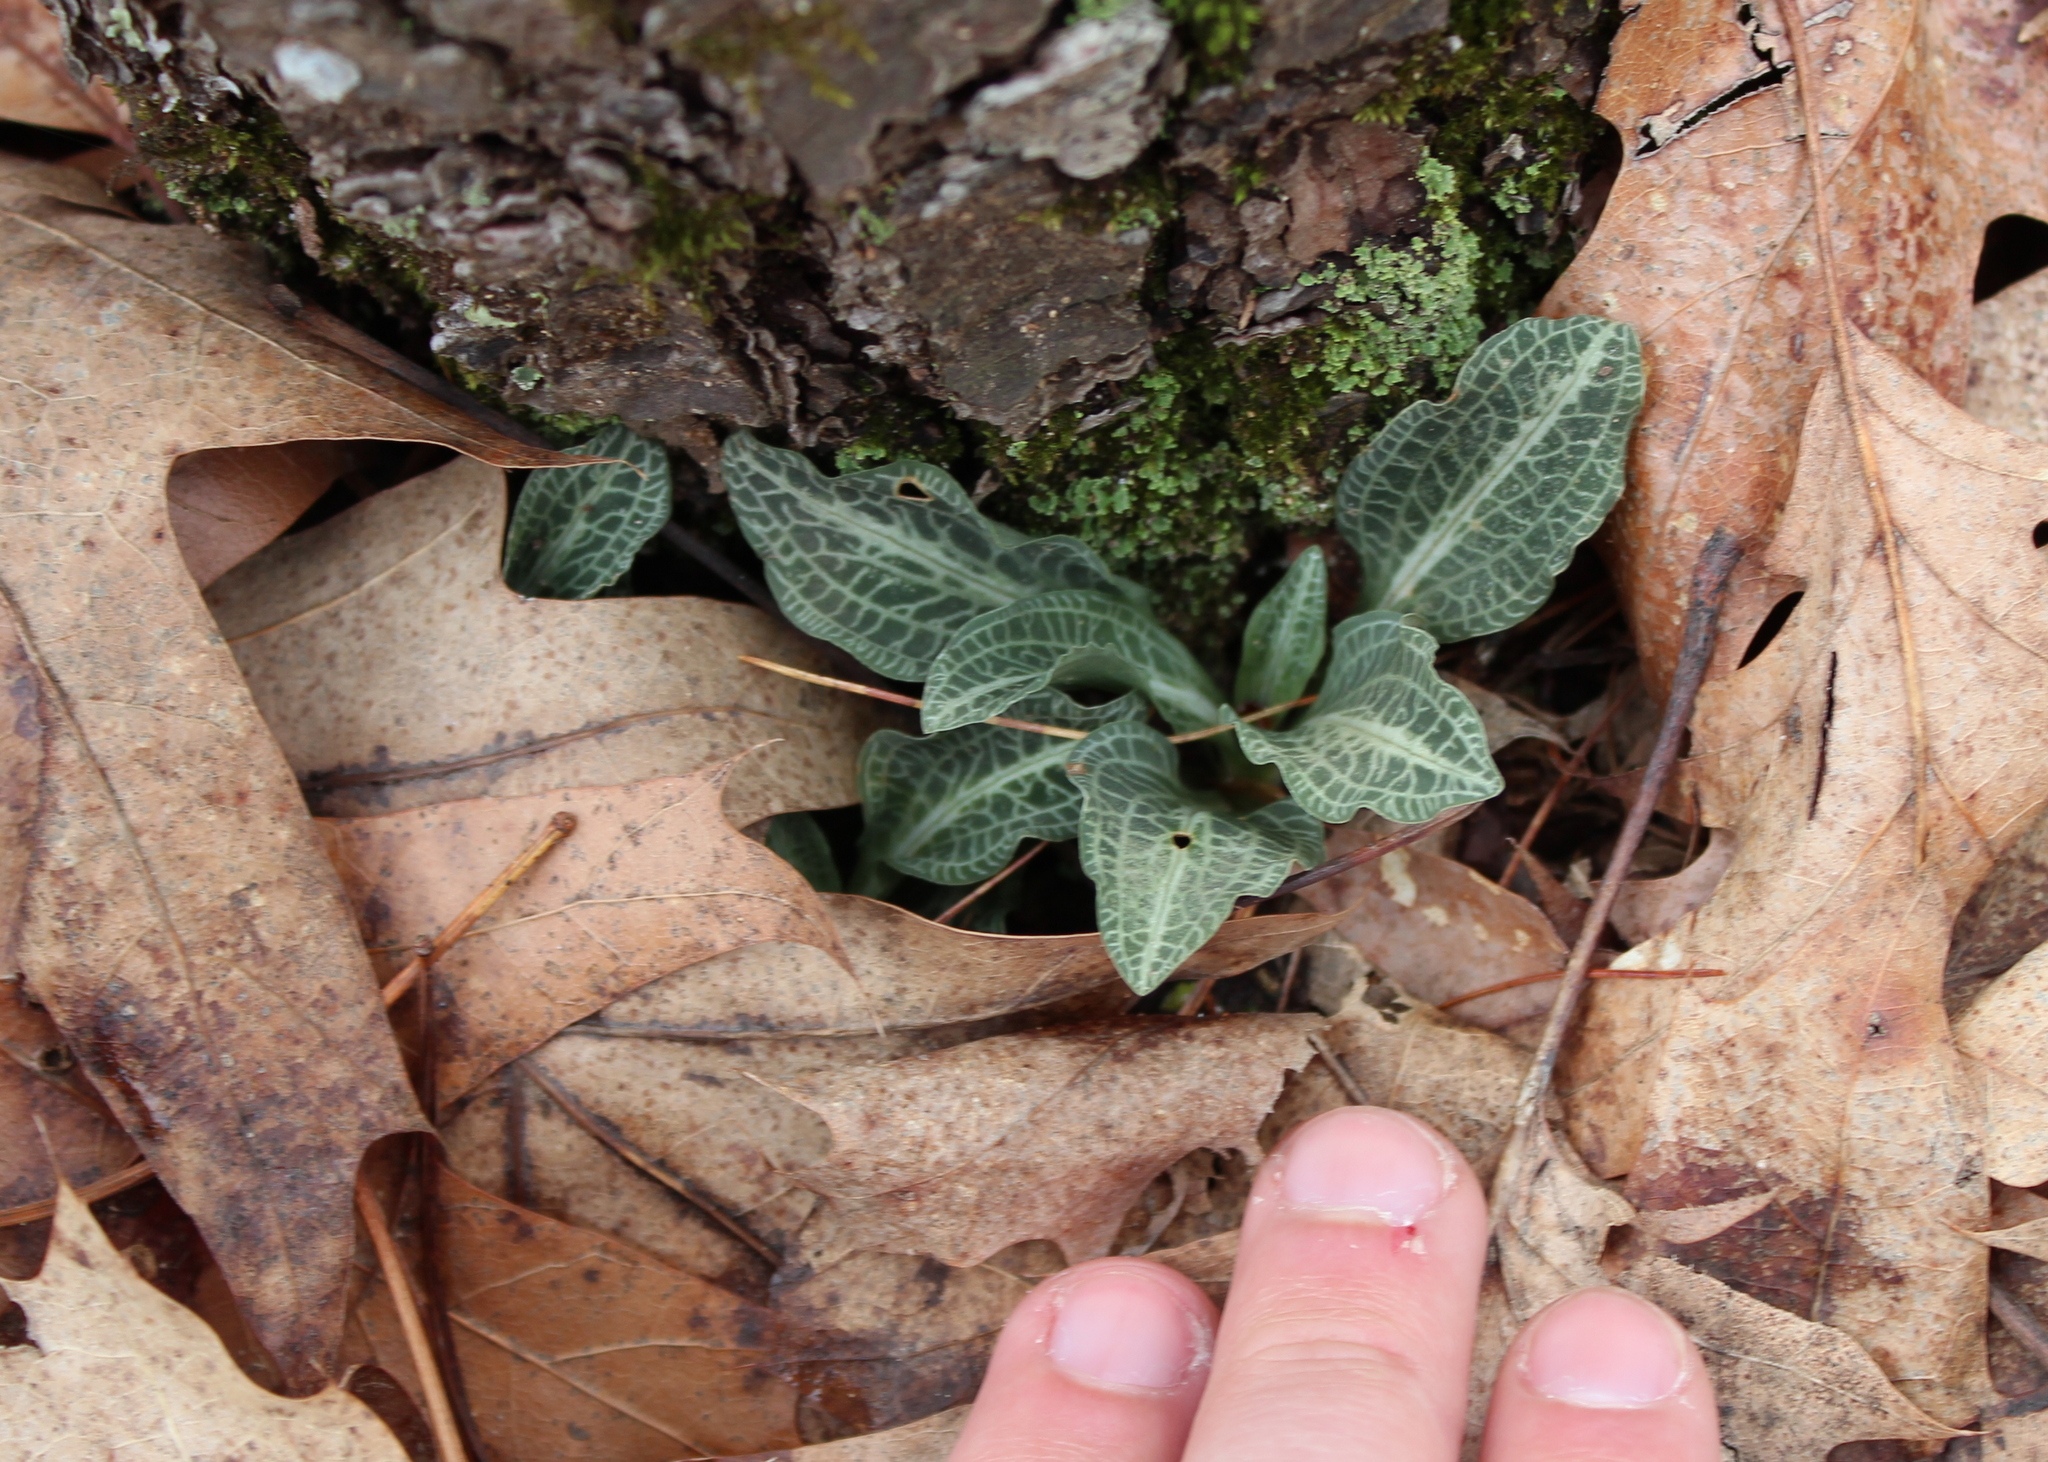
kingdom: Plantae
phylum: Tracheophyta
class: Liliopsida
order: Asparagales
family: Orchidaceae
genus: Goodyera
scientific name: Goodyera pubescens
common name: Downy rattlesnake-plantain
